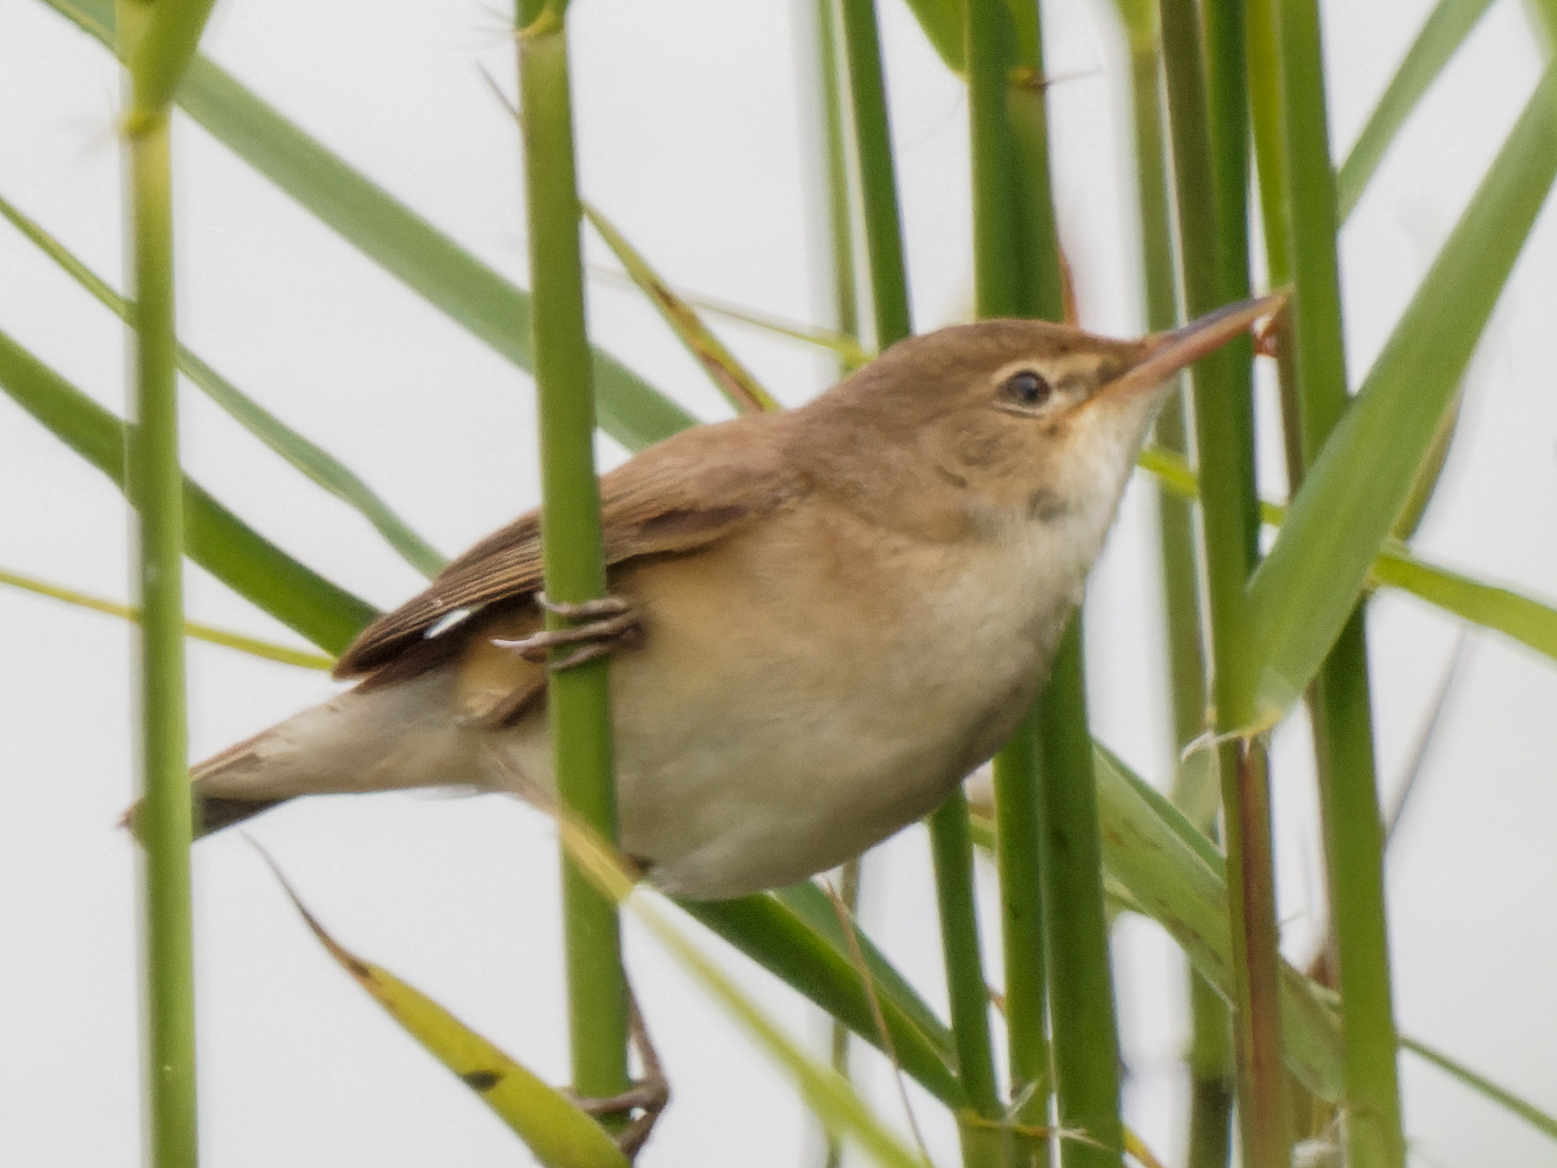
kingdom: Animalia
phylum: Chordata
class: Aves
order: Passeriformes
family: Acrocephalidae
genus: Acrocephalus
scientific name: Acrocephalus scirpaceus
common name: Eurasian reed warbler
